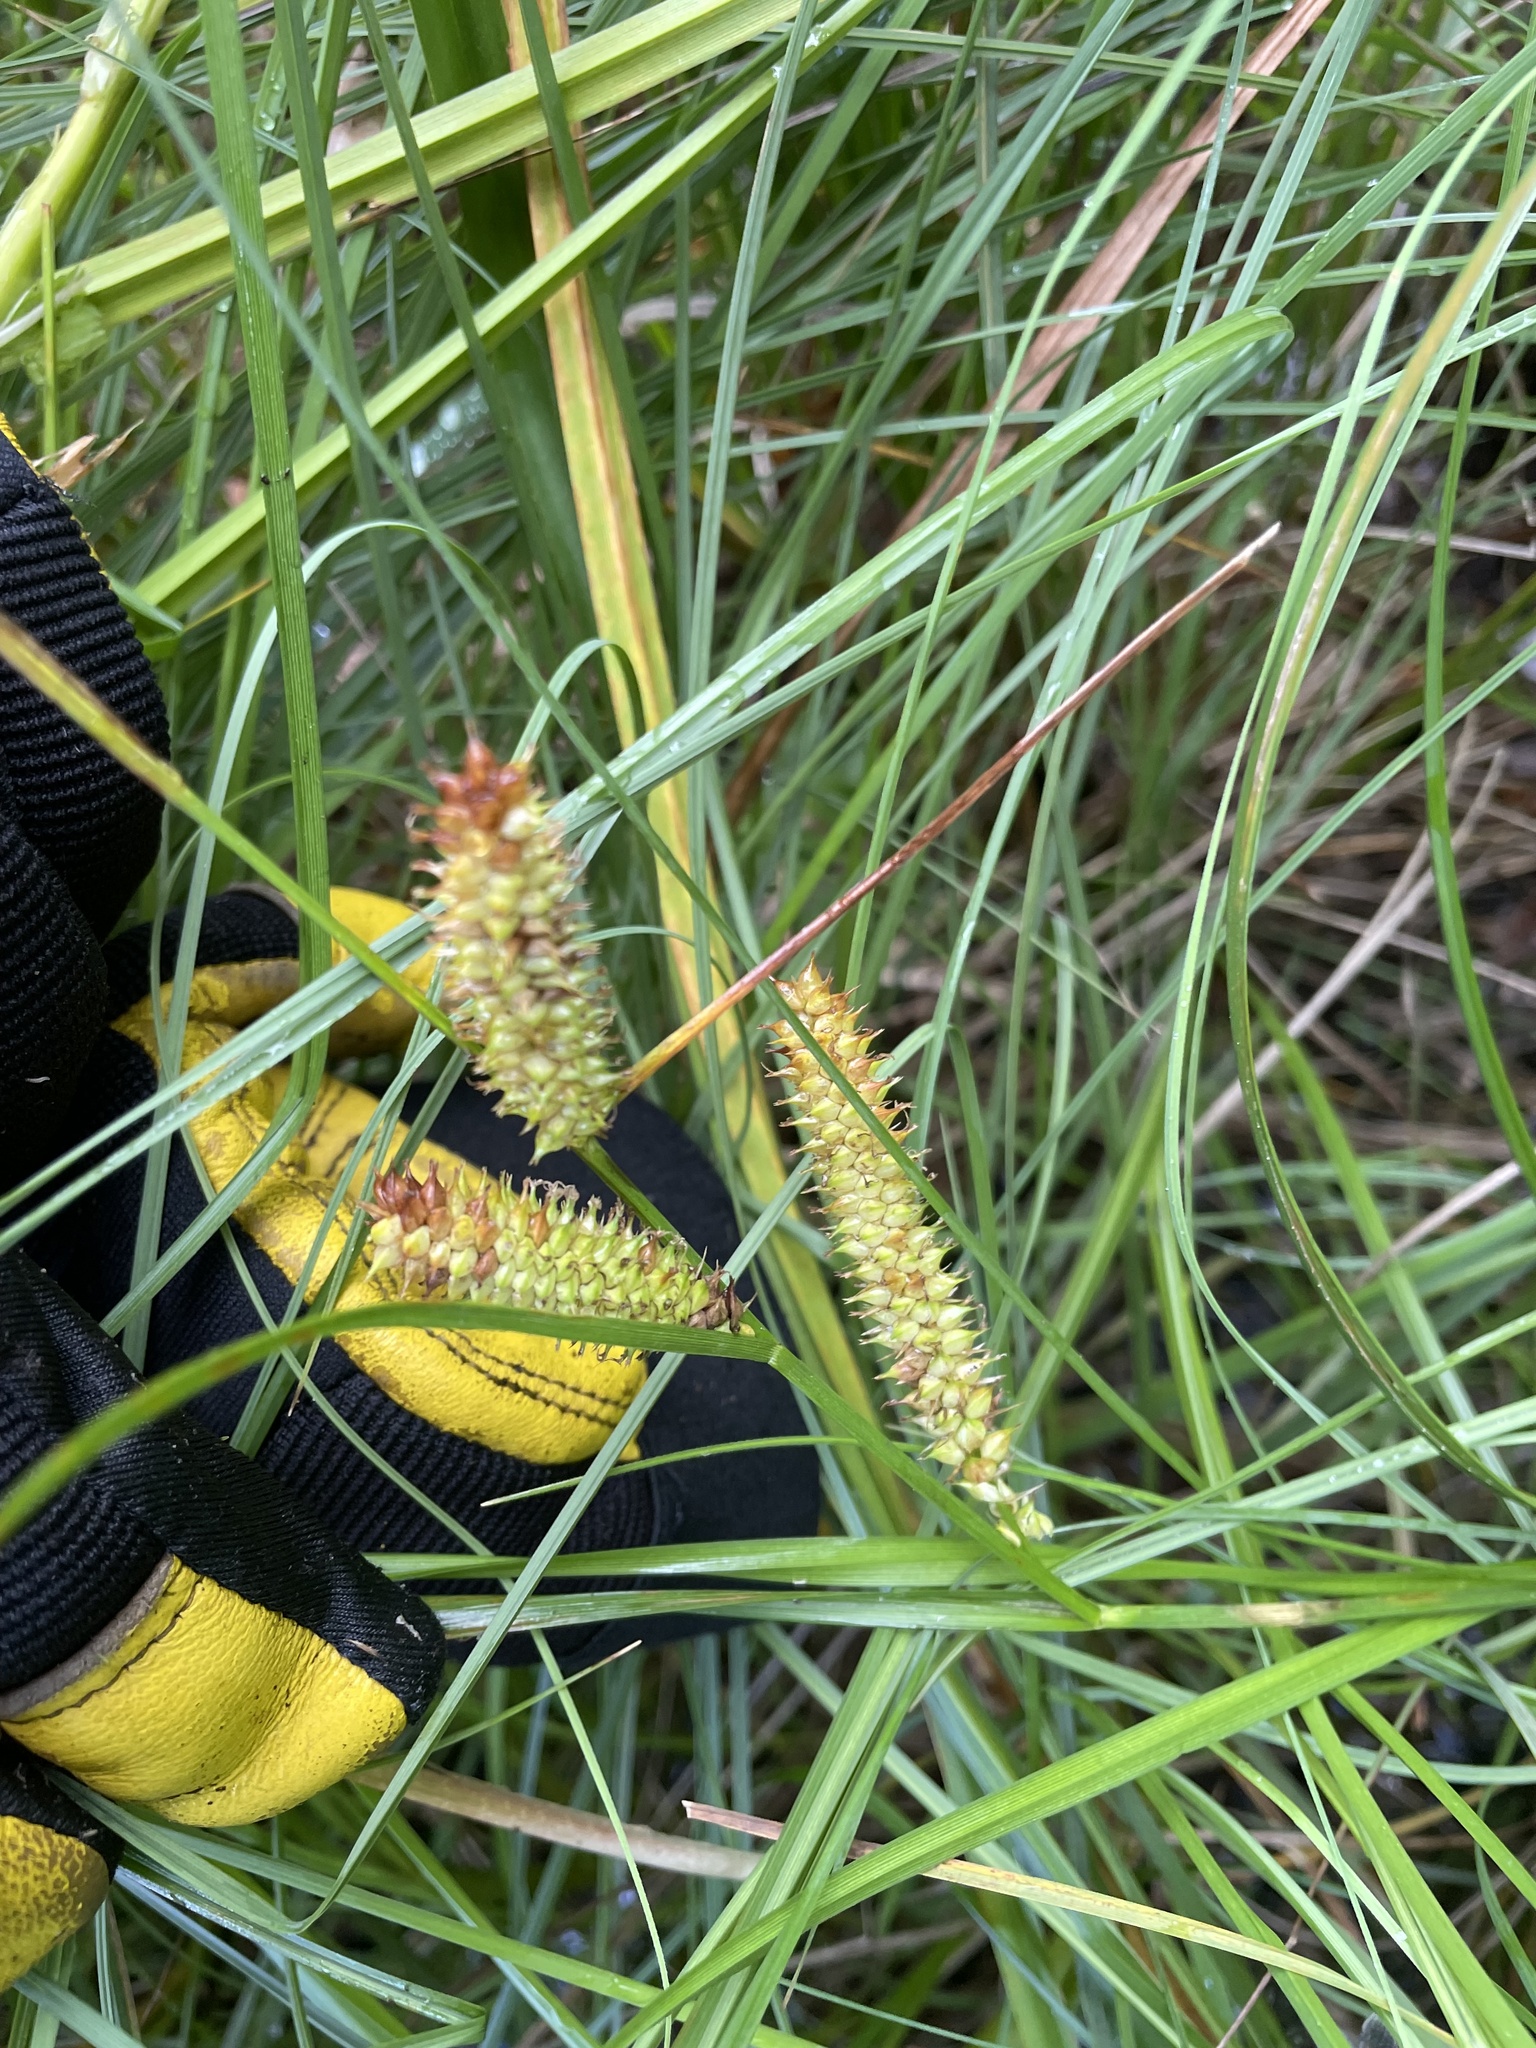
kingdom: Plantae
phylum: Tracheophyta
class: Liliopsida
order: Poales
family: Cyperaceae
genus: Carex
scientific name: Carex utriculata
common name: Beaked sedge
